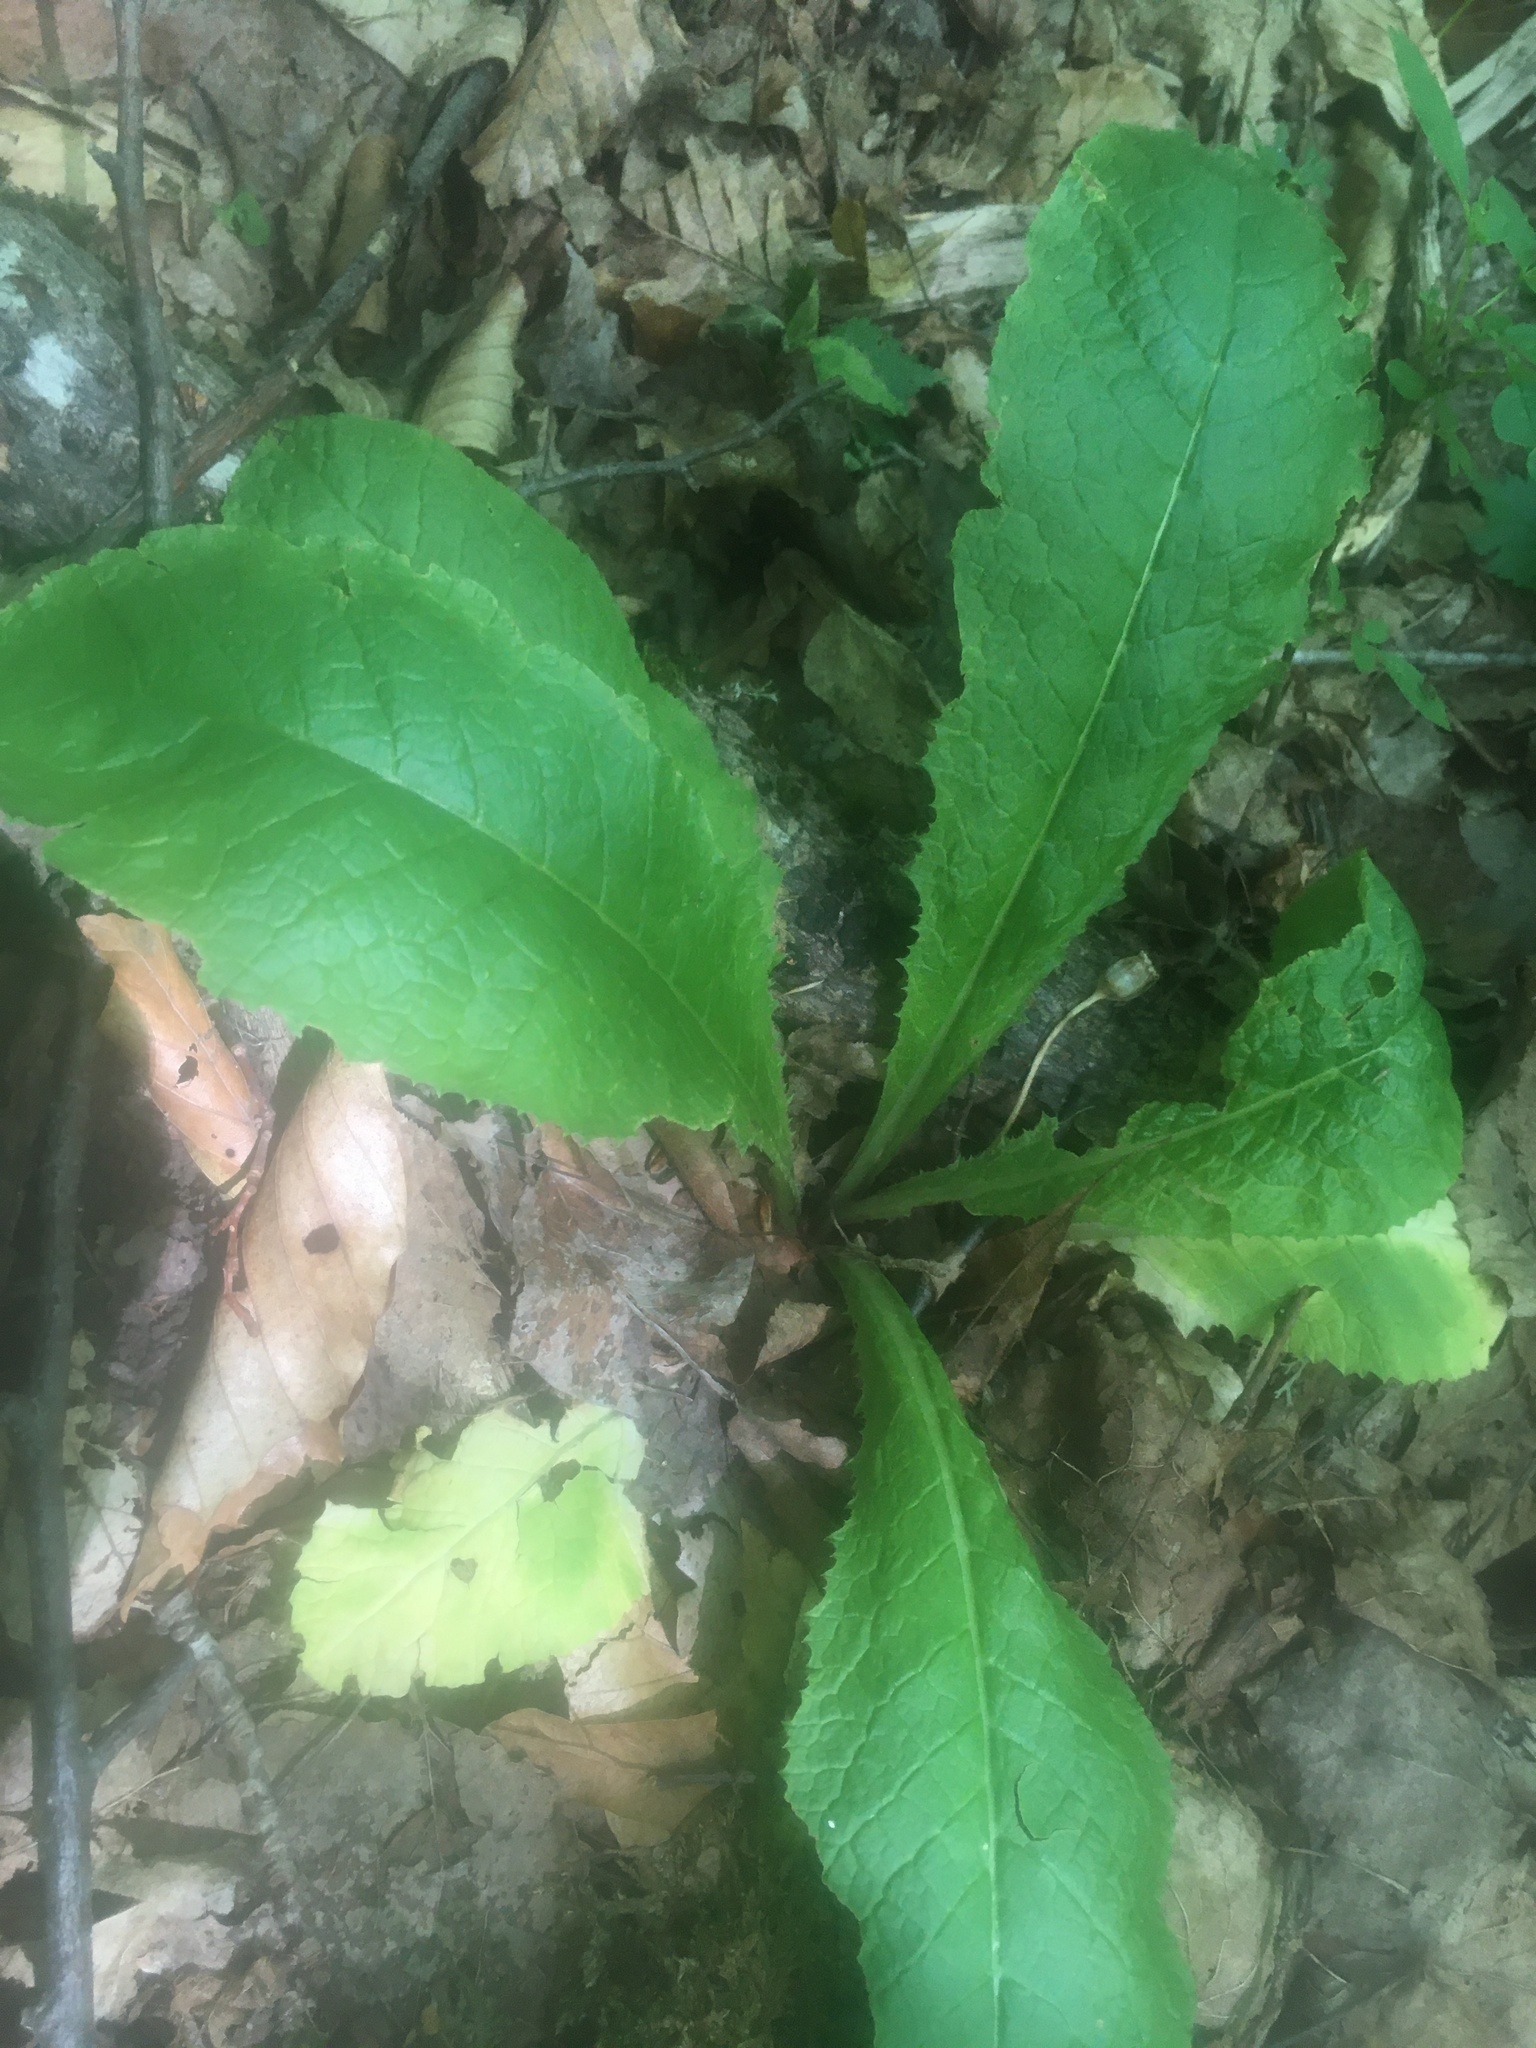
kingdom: Plantae
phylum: Tracheophyta
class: Magnoliopsida
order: Ericales
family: Primulaceae
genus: Primula
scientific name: Primula vulgaris
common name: Primrose
